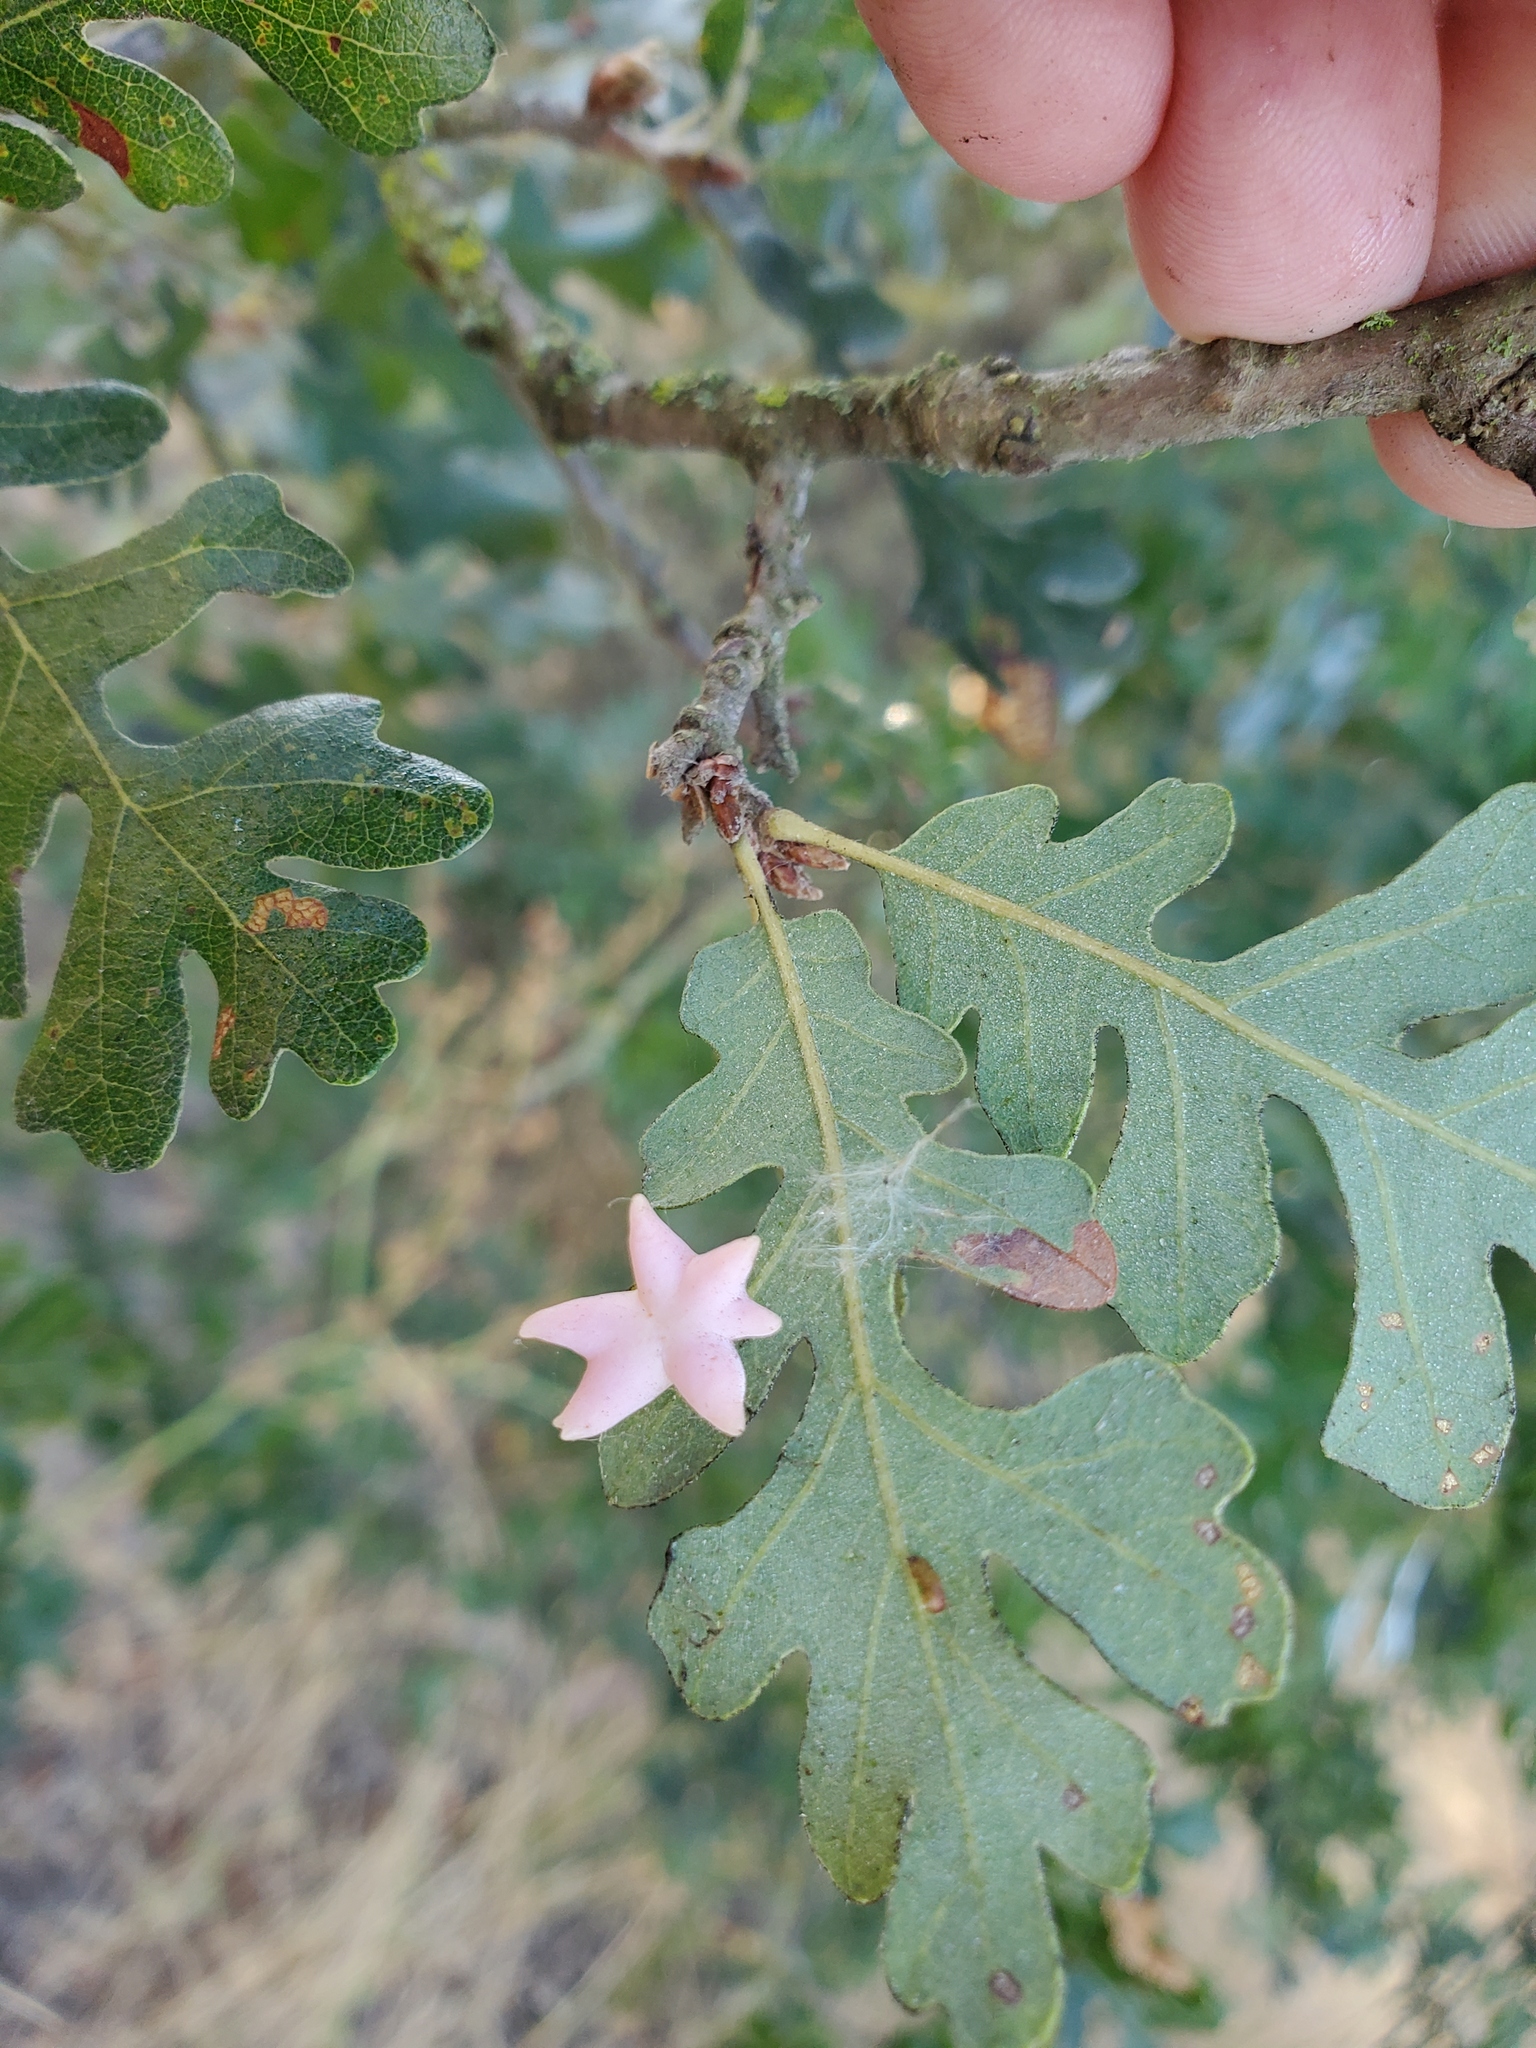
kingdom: Animalia
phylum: Arthropoda
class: Insecta
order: Hymenoptera
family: Cynipidae
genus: Cynips
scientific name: Cynips douglasi
